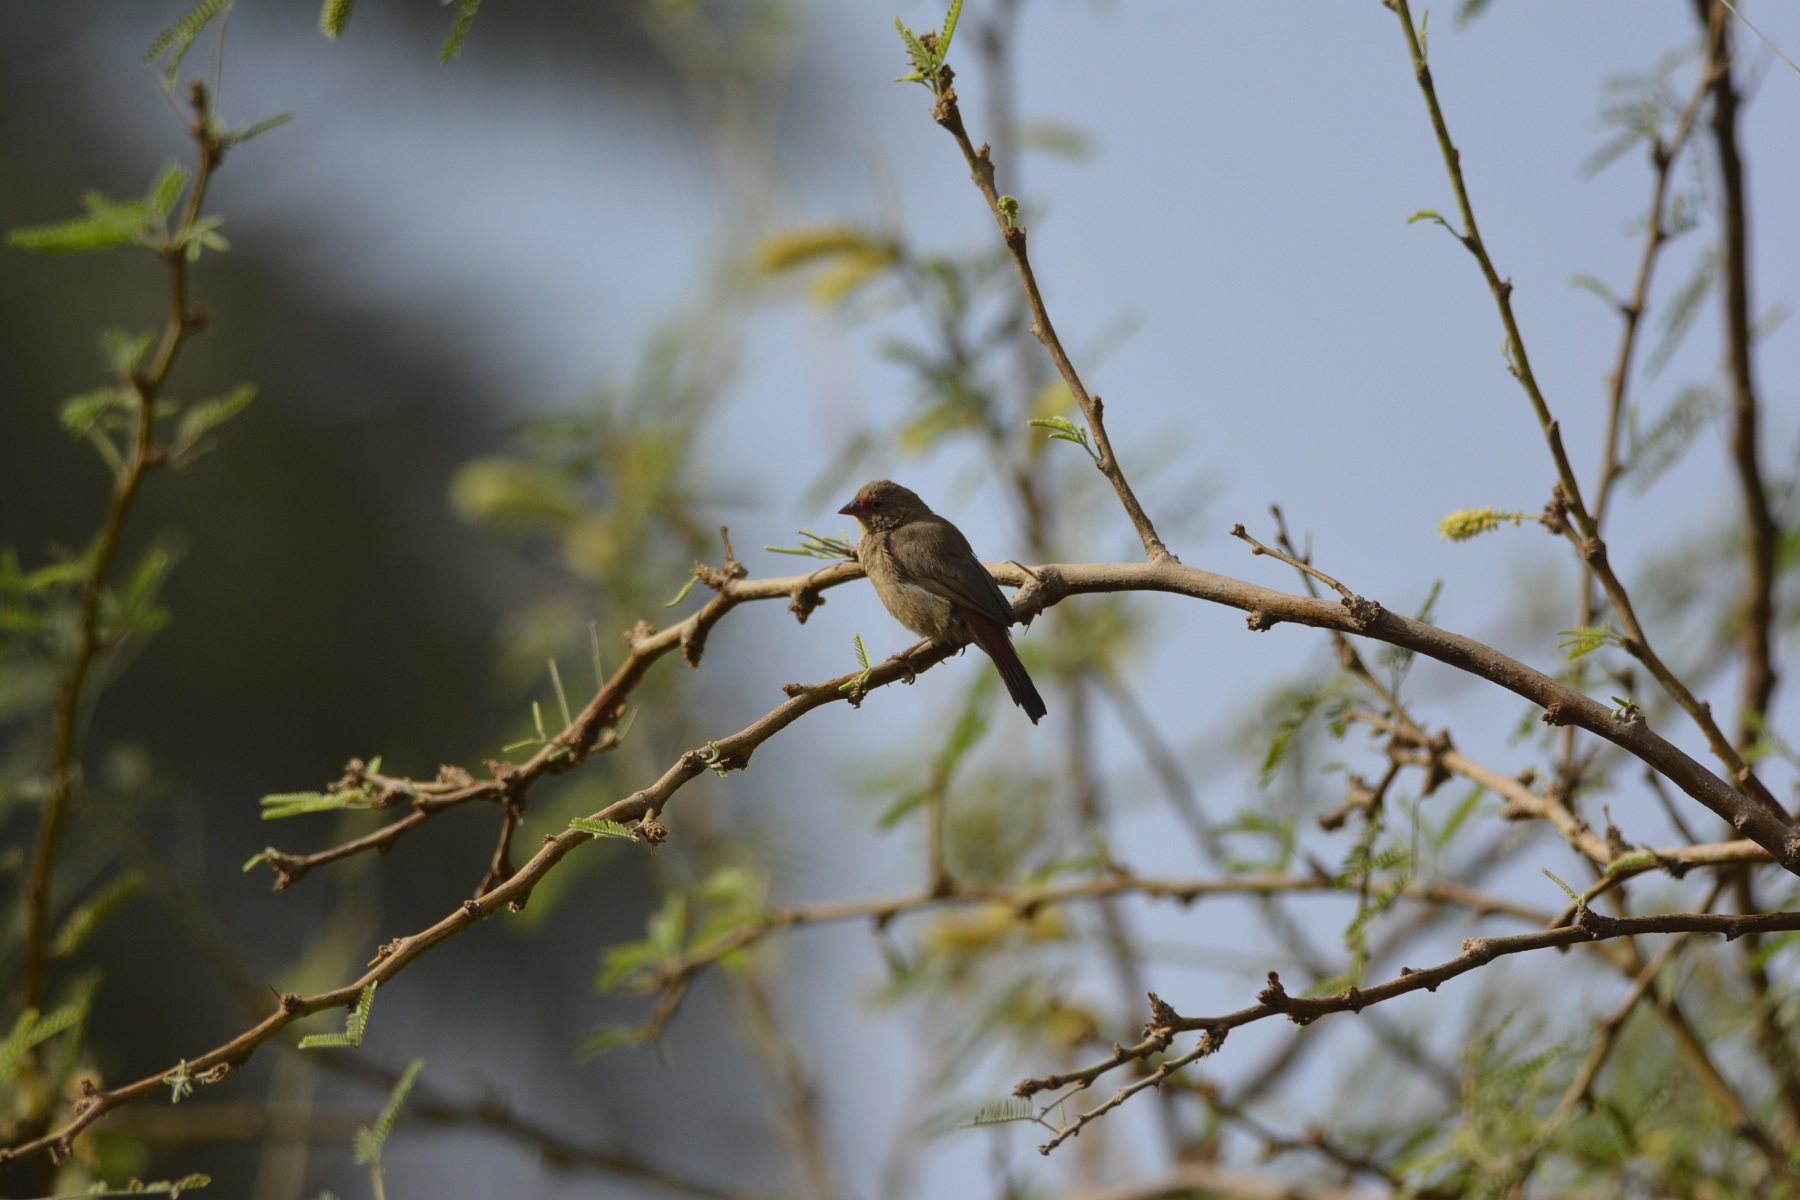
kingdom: Animalia
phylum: Chordata
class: Aves
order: Passeriformes
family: Estrildidae
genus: Lagonosticta
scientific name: Lagonosticta senegala
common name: Red-billed firefinch
